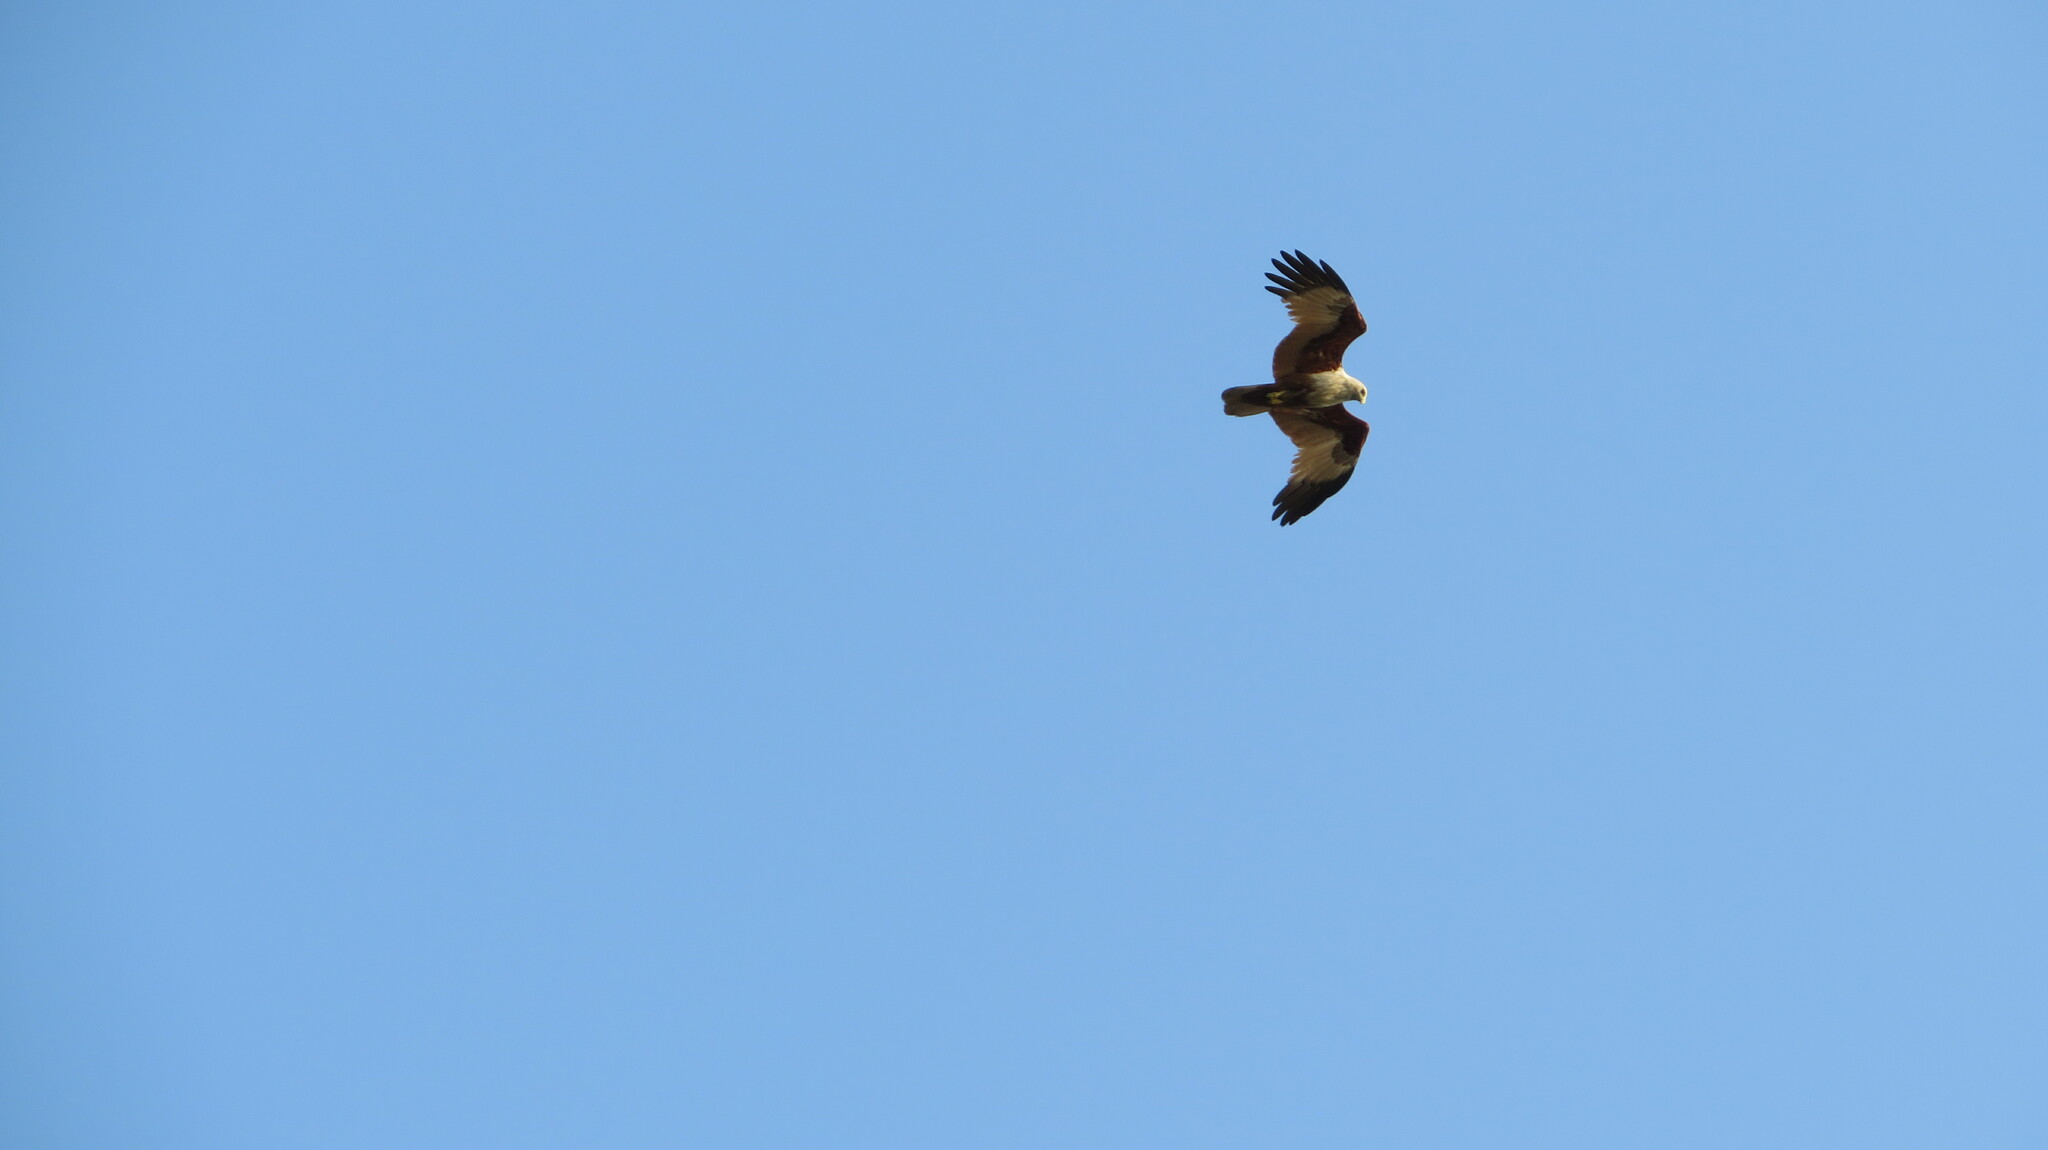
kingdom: Animalia
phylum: Chordata
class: Aves
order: Accipitriformes
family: Accipitridae
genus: Haliastur
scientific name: Haliastur indus
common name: Brahminy kite
